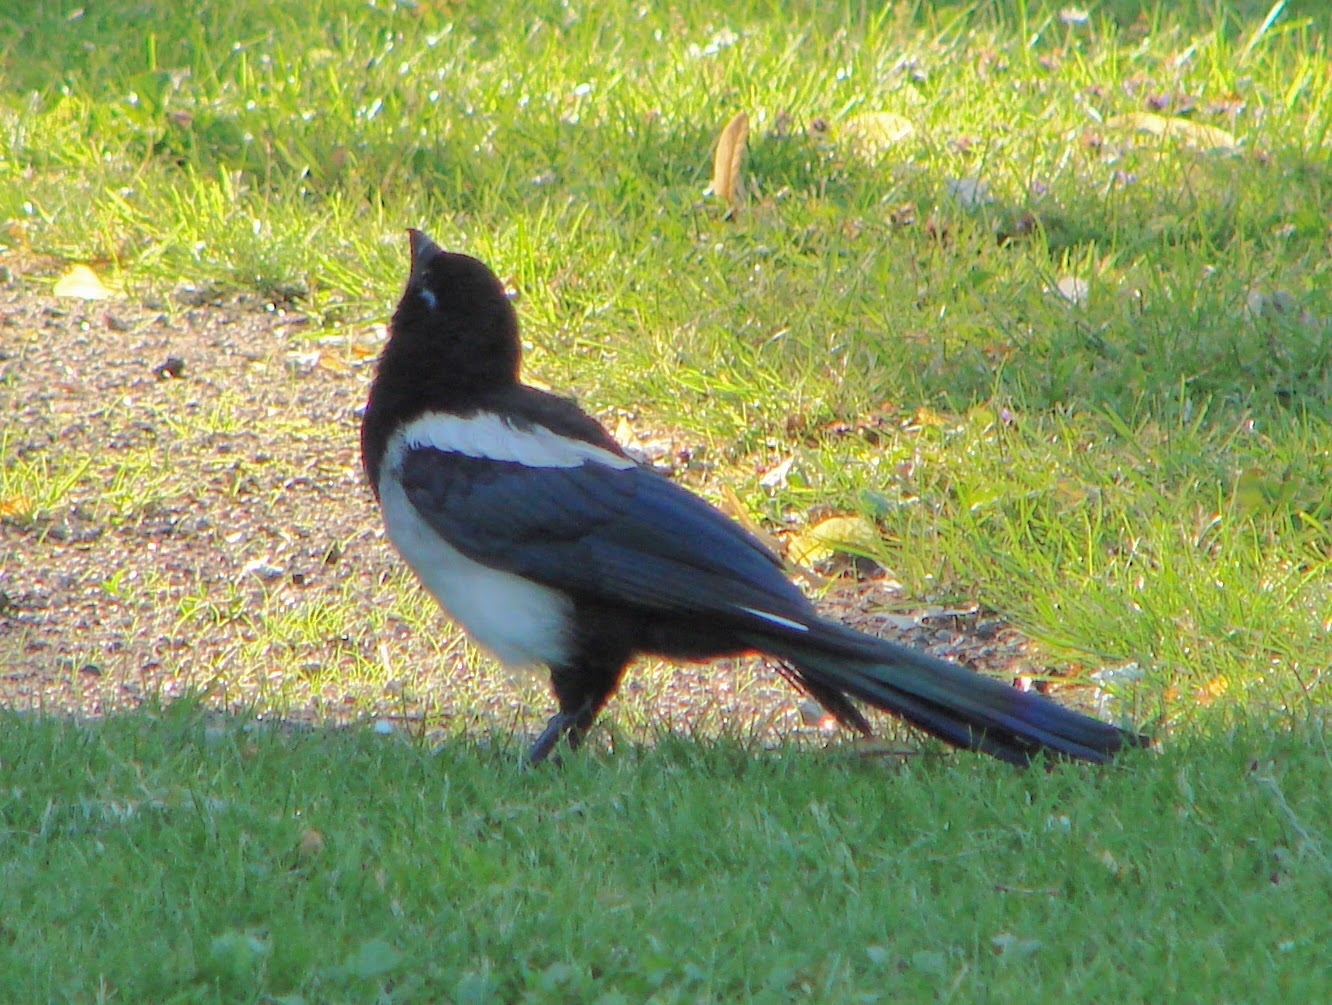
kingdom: Animalia
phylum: Chordata
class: Aves
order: Passeriformes
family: Corvidae
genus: Pica
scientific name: Pica pica
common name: Eurasian magpie
